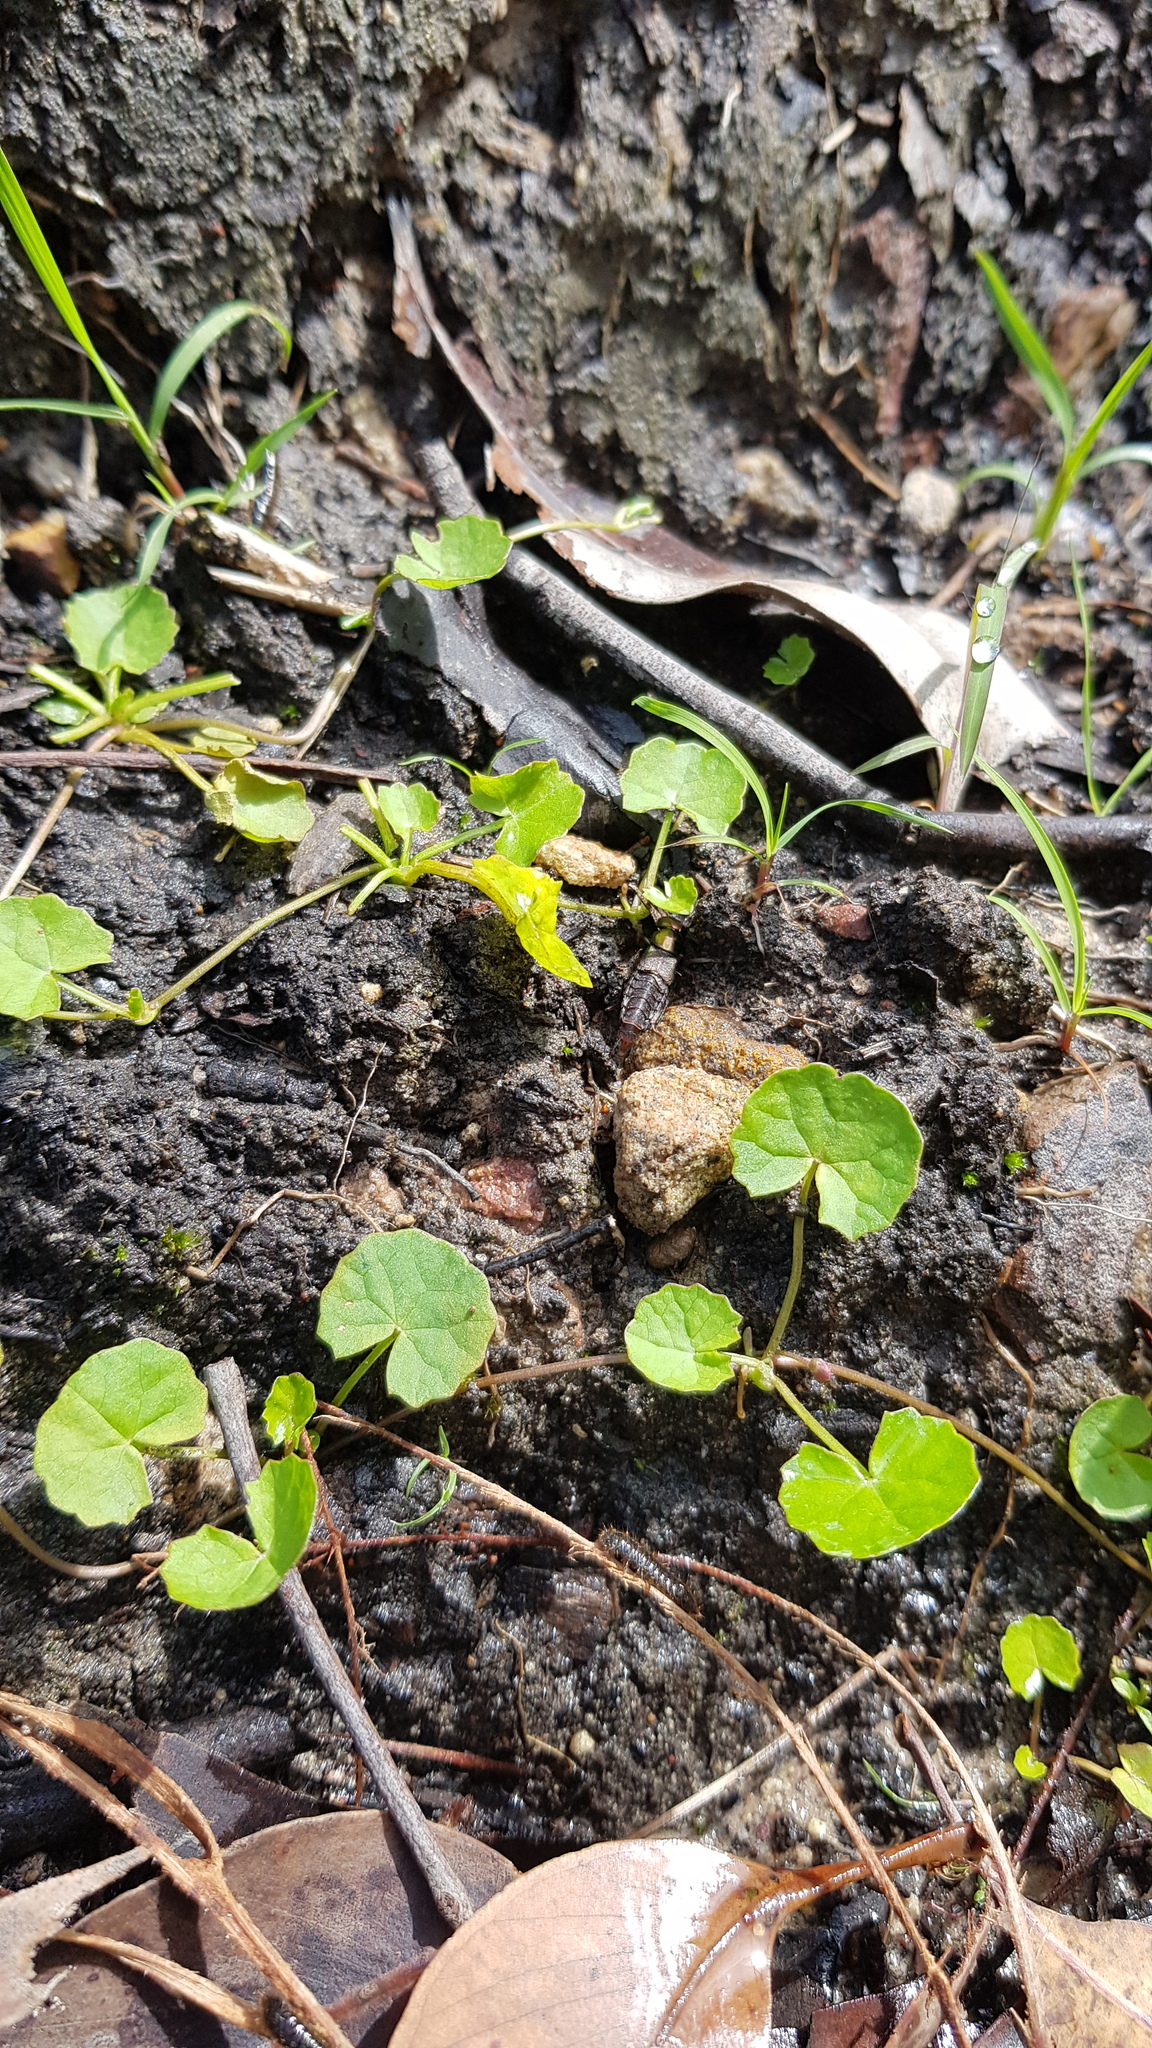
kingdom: Animalia
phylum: Arthropoda
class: Insecta
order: Coleoptera
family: Staphylinidae
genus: Antimerus
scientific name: Antimerus punctipennis
